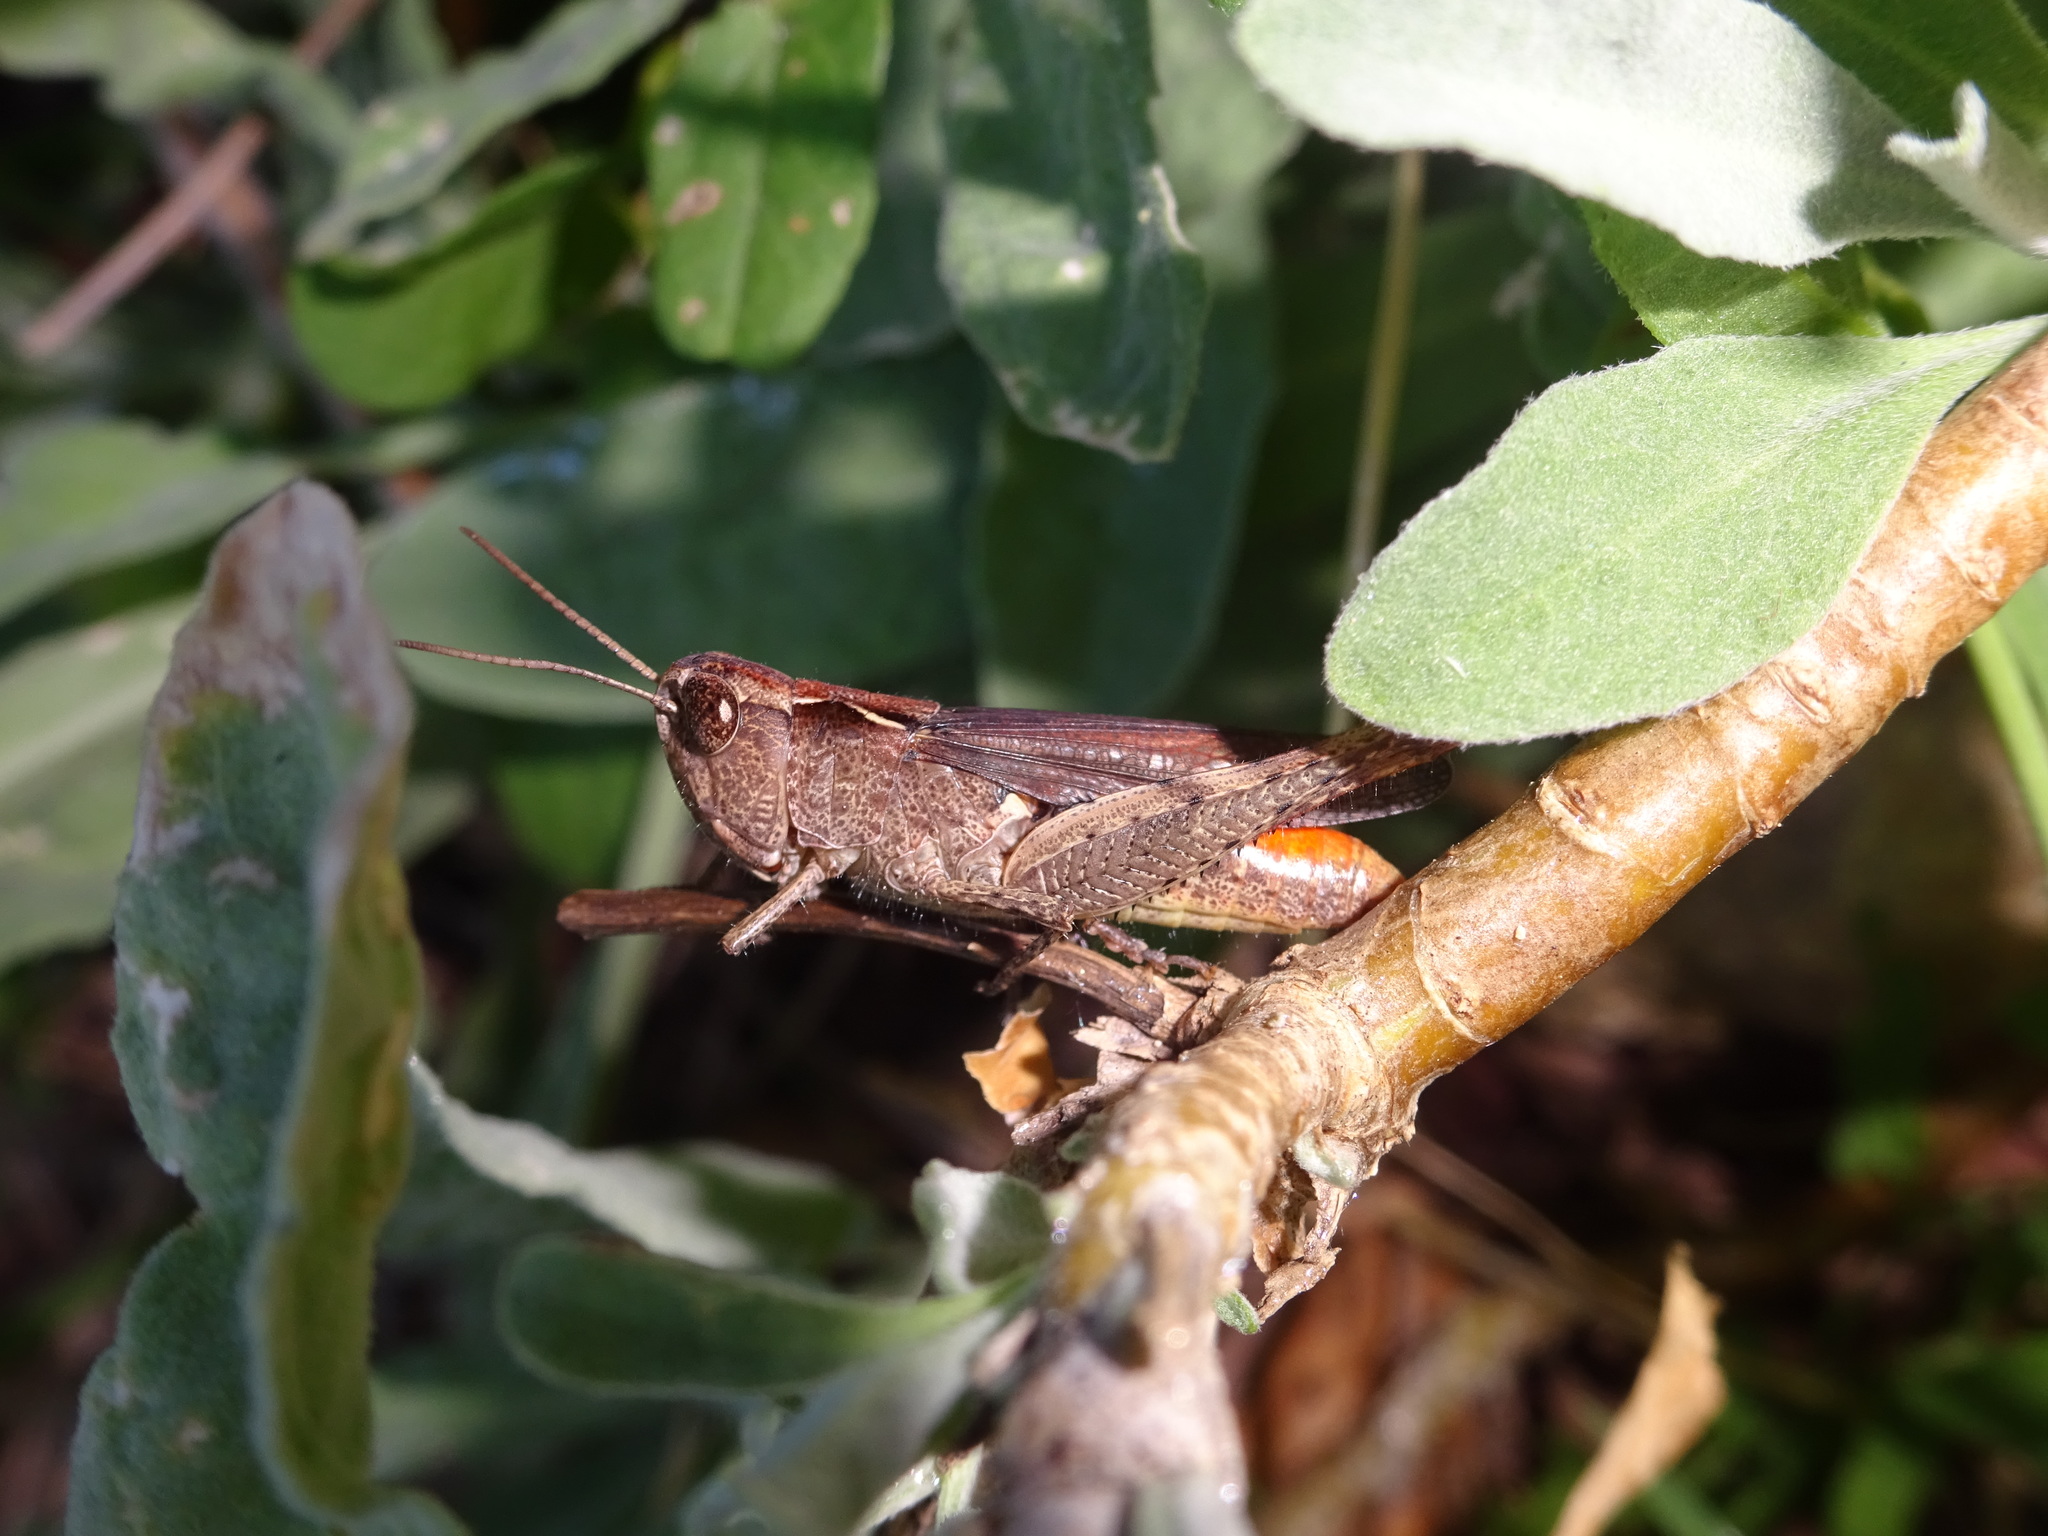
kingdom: Animalia
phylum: Arthropoda
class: Insecta
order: Orthoptera
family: Acrididae
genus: Chorthippus
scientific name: Chorthippus vagans
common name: Heath grasshopper
